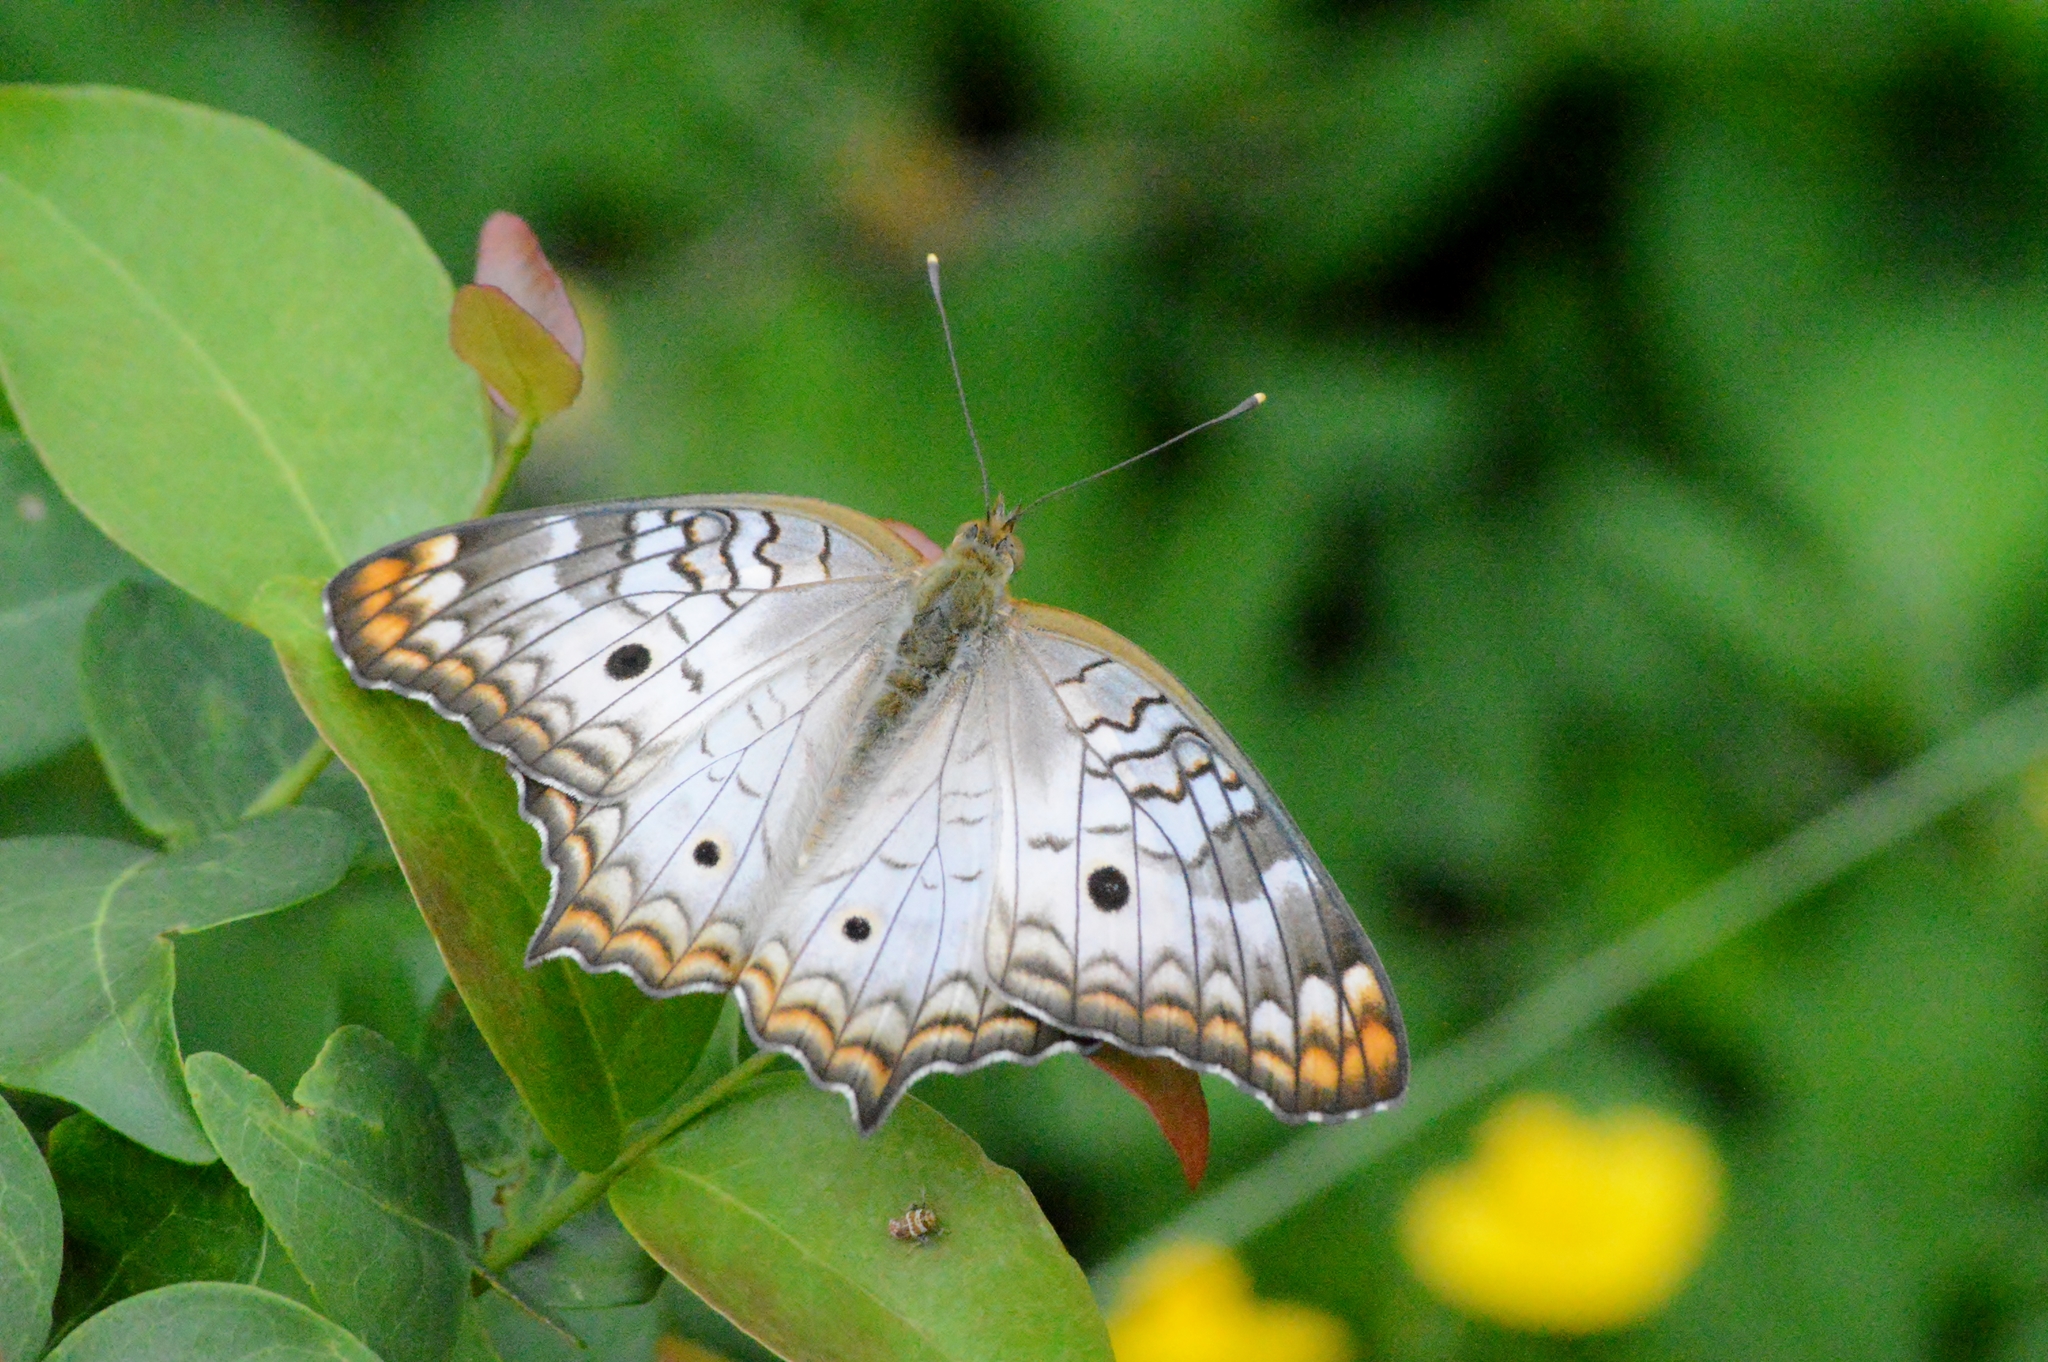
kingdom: Animalia
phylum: Arthropoda
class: Insecta
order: Lepidoptera
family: Nymphalidae
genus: Anartia
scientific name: Anartia jatrophae
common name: White peacock
